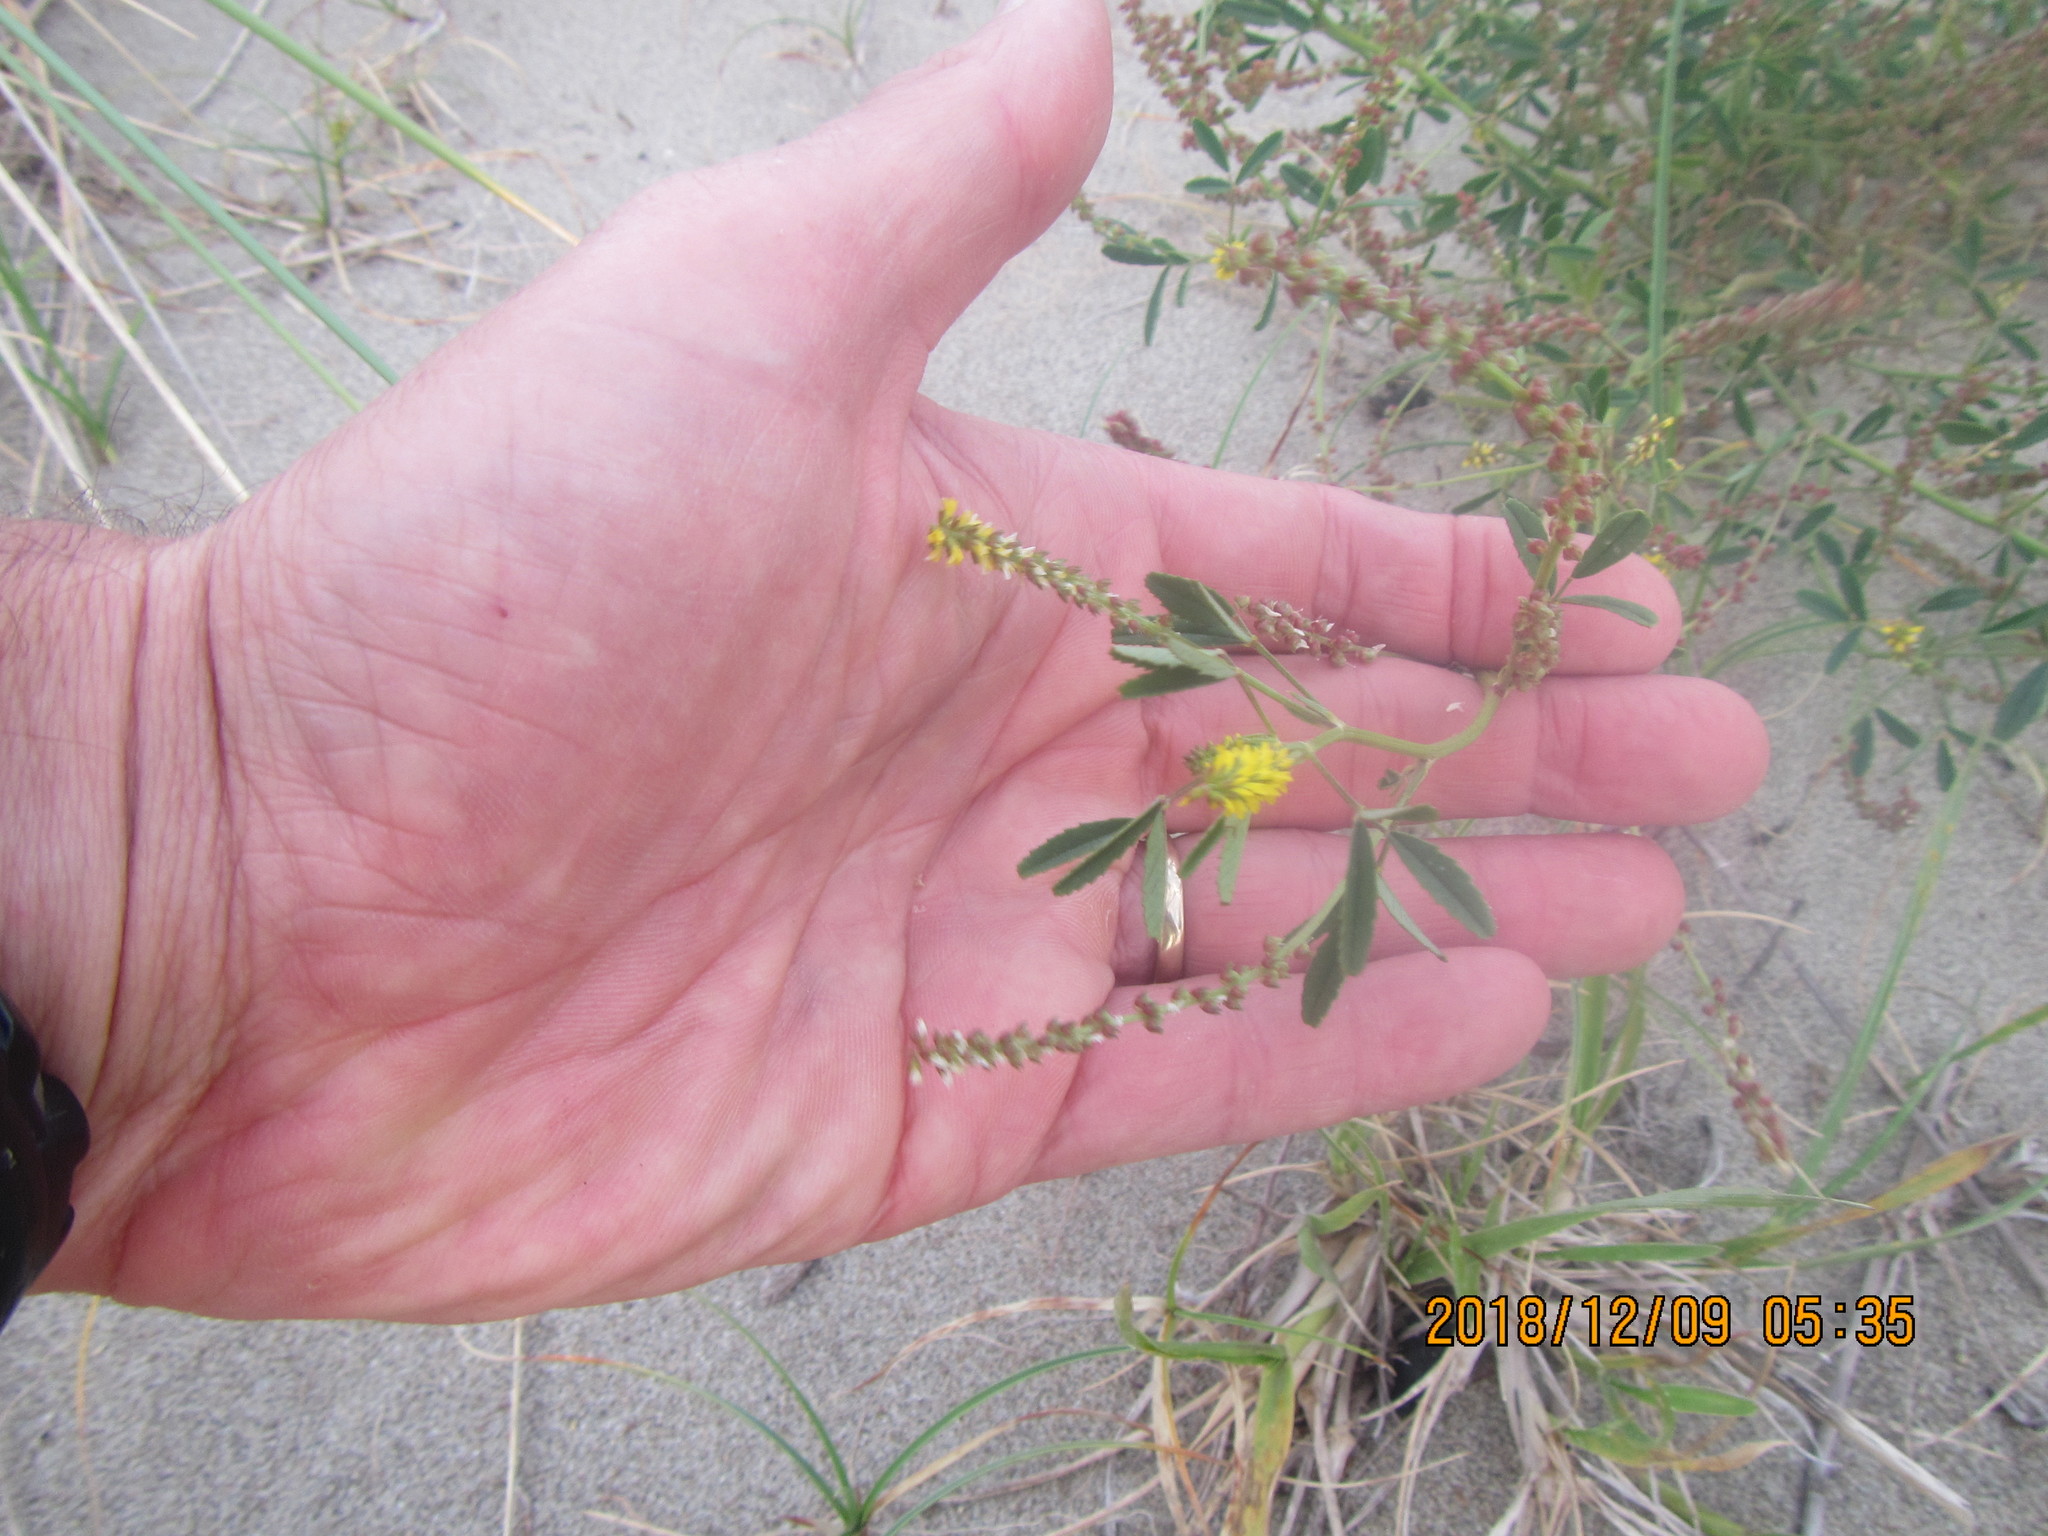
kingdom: Plantae
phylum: Tracheophyta
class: Magnoliopsida
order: Fabales
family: Fabaceae
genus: Melilotus
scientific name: Melilotus indicus
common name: Small melilot
